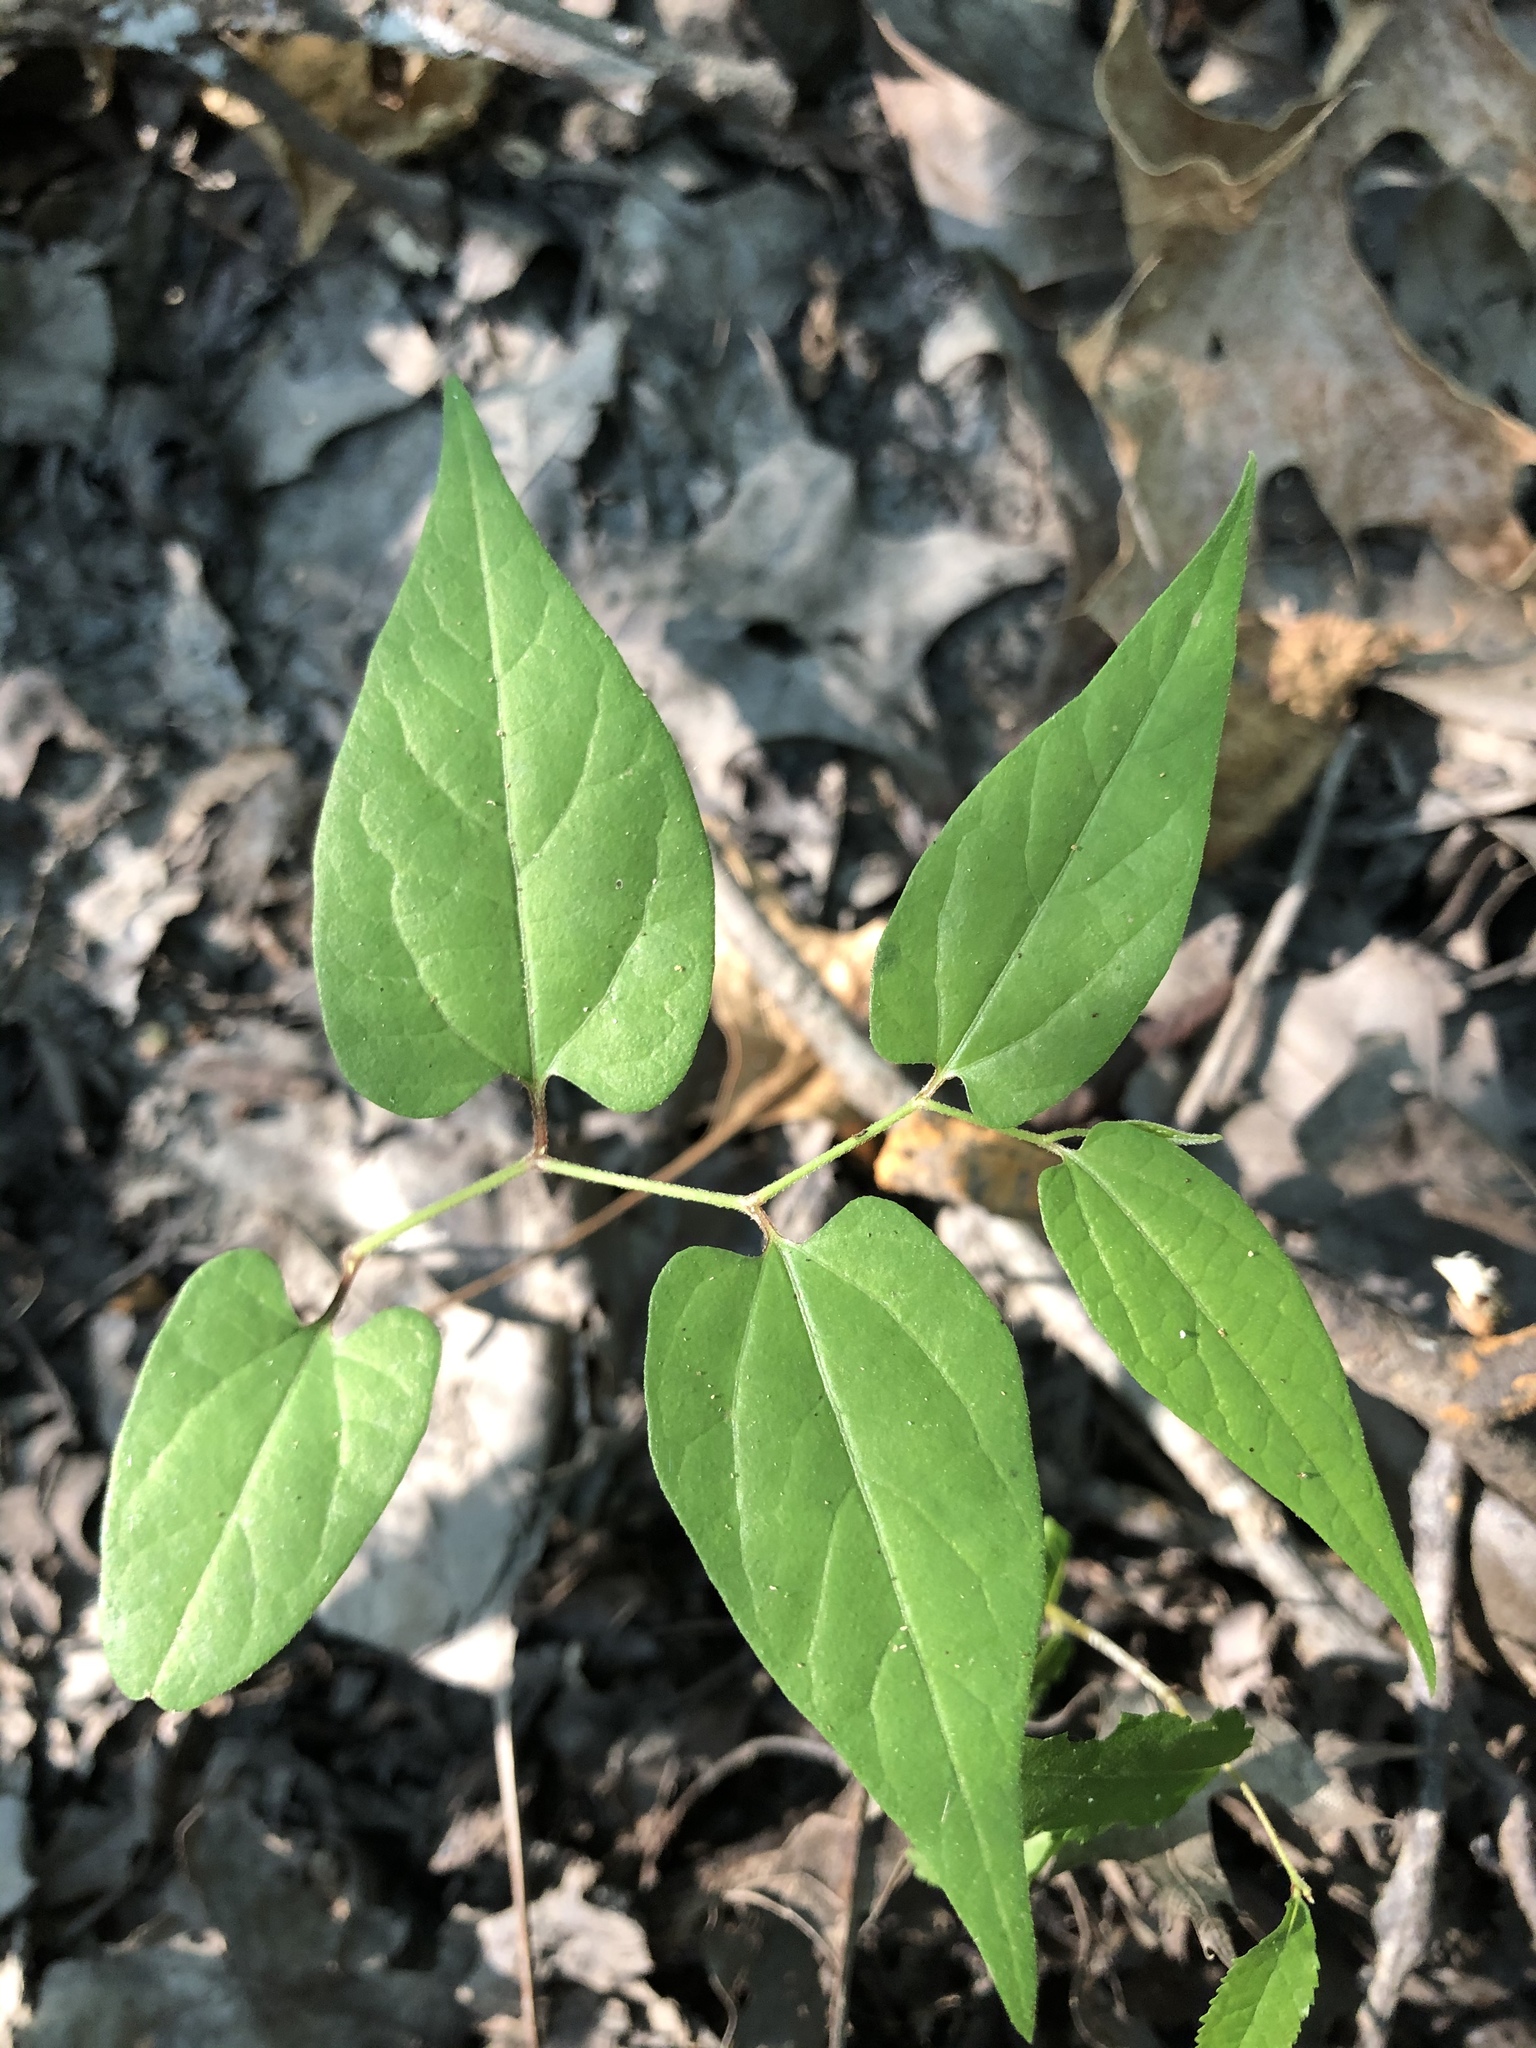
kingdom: Plantae
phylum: Tracheophyta
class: Magnoliopsida
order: Piperales
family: Aristolochiaceae
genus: Endodeca
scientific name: Endodeca serpentaria
